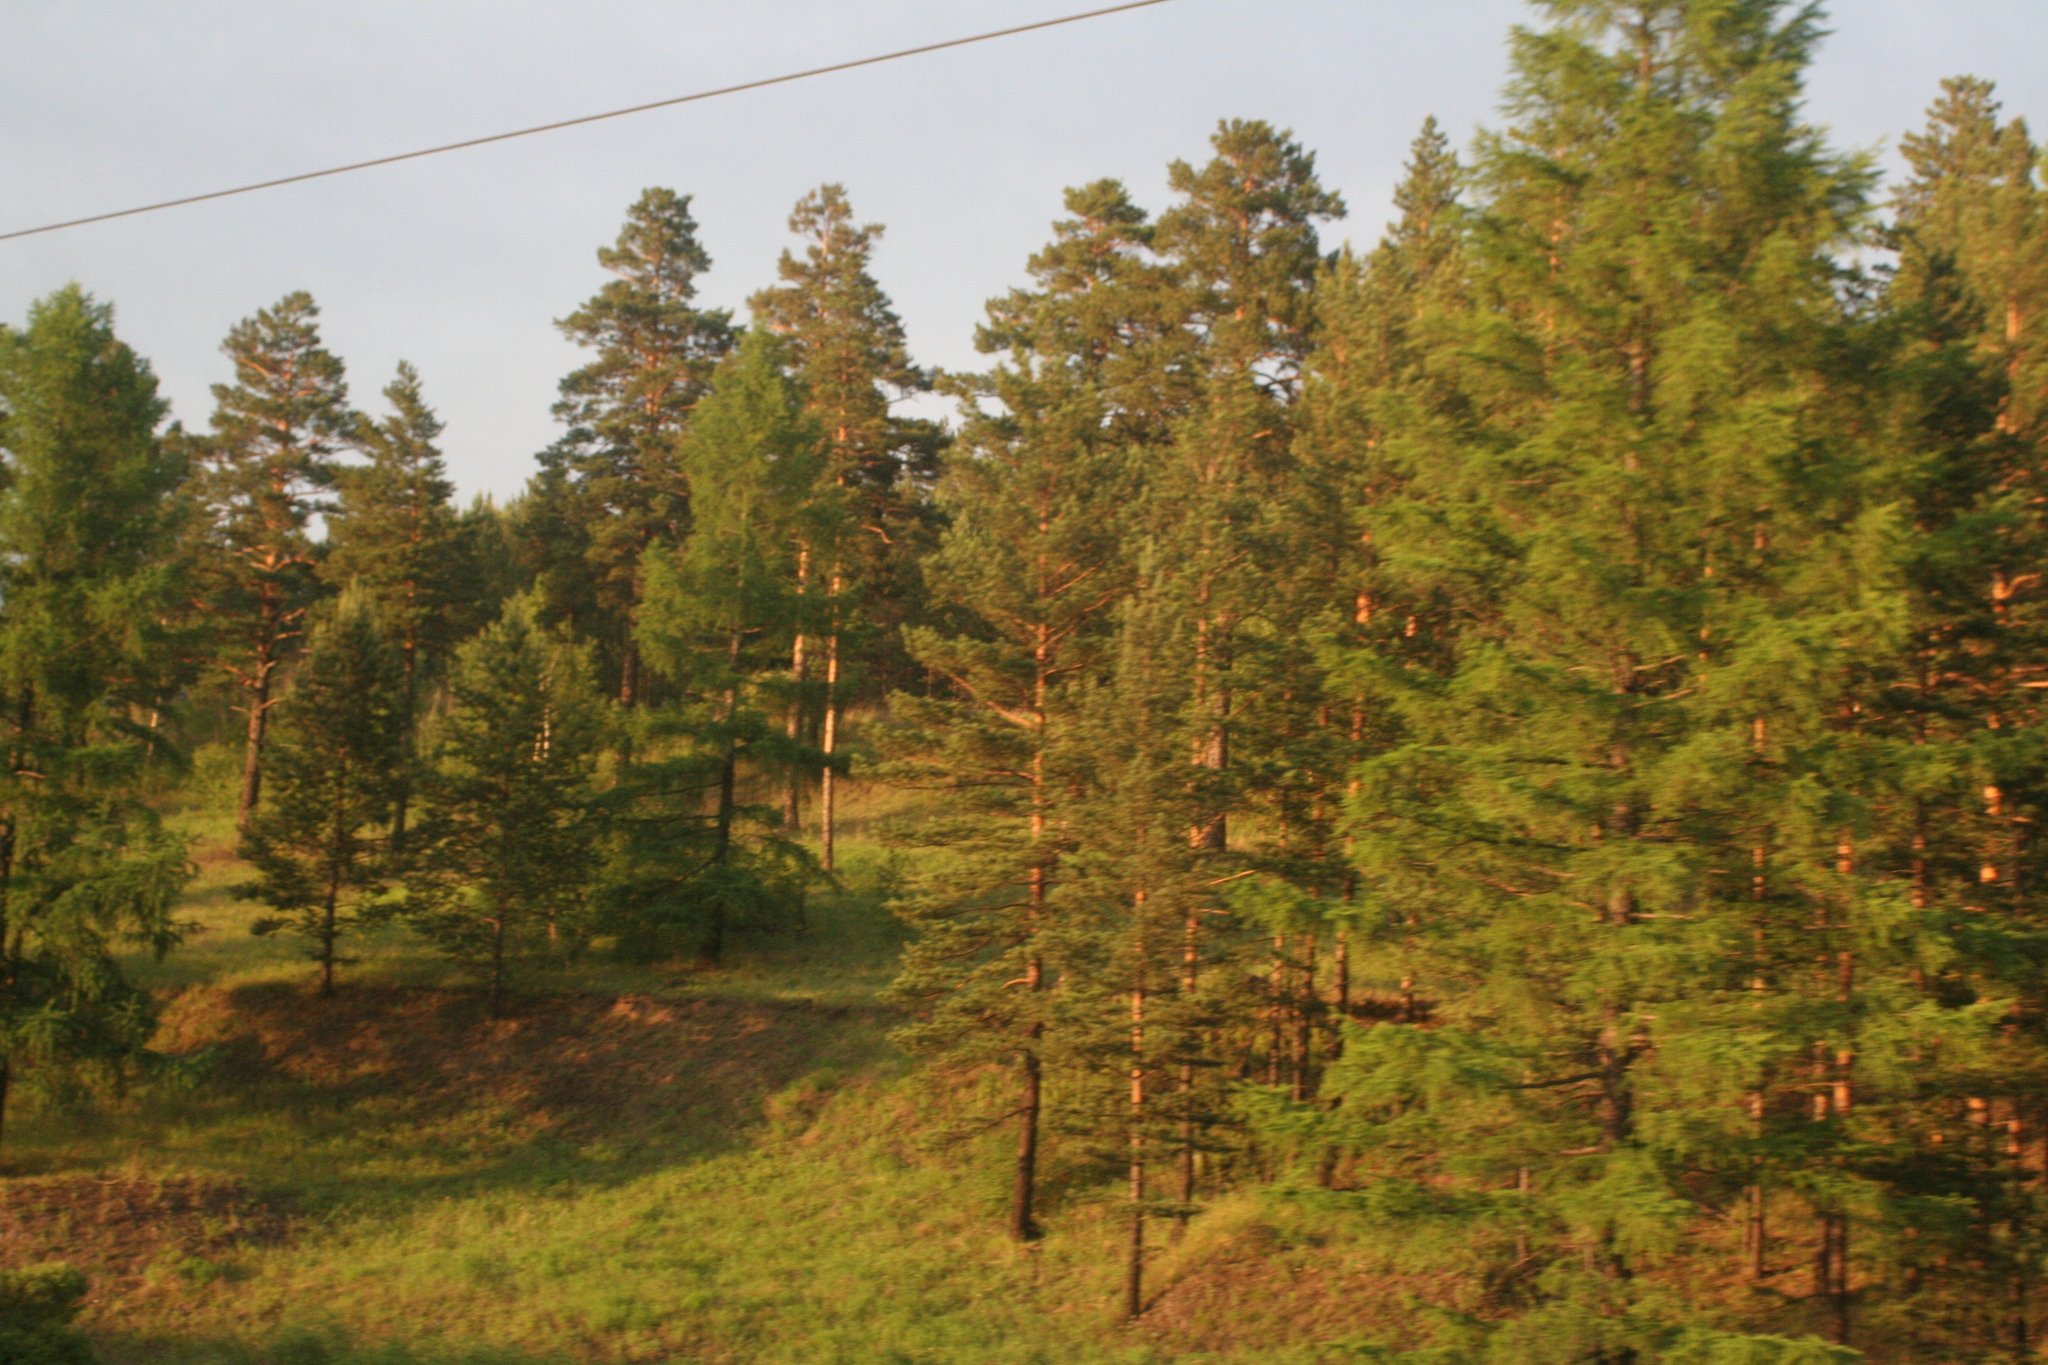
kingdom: Plantae
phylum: Tracheophyta
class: Pinopsida
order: Pinales
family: Pinaceae
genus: Pinus
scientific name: Pinus sylvestris
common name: Scots pine
